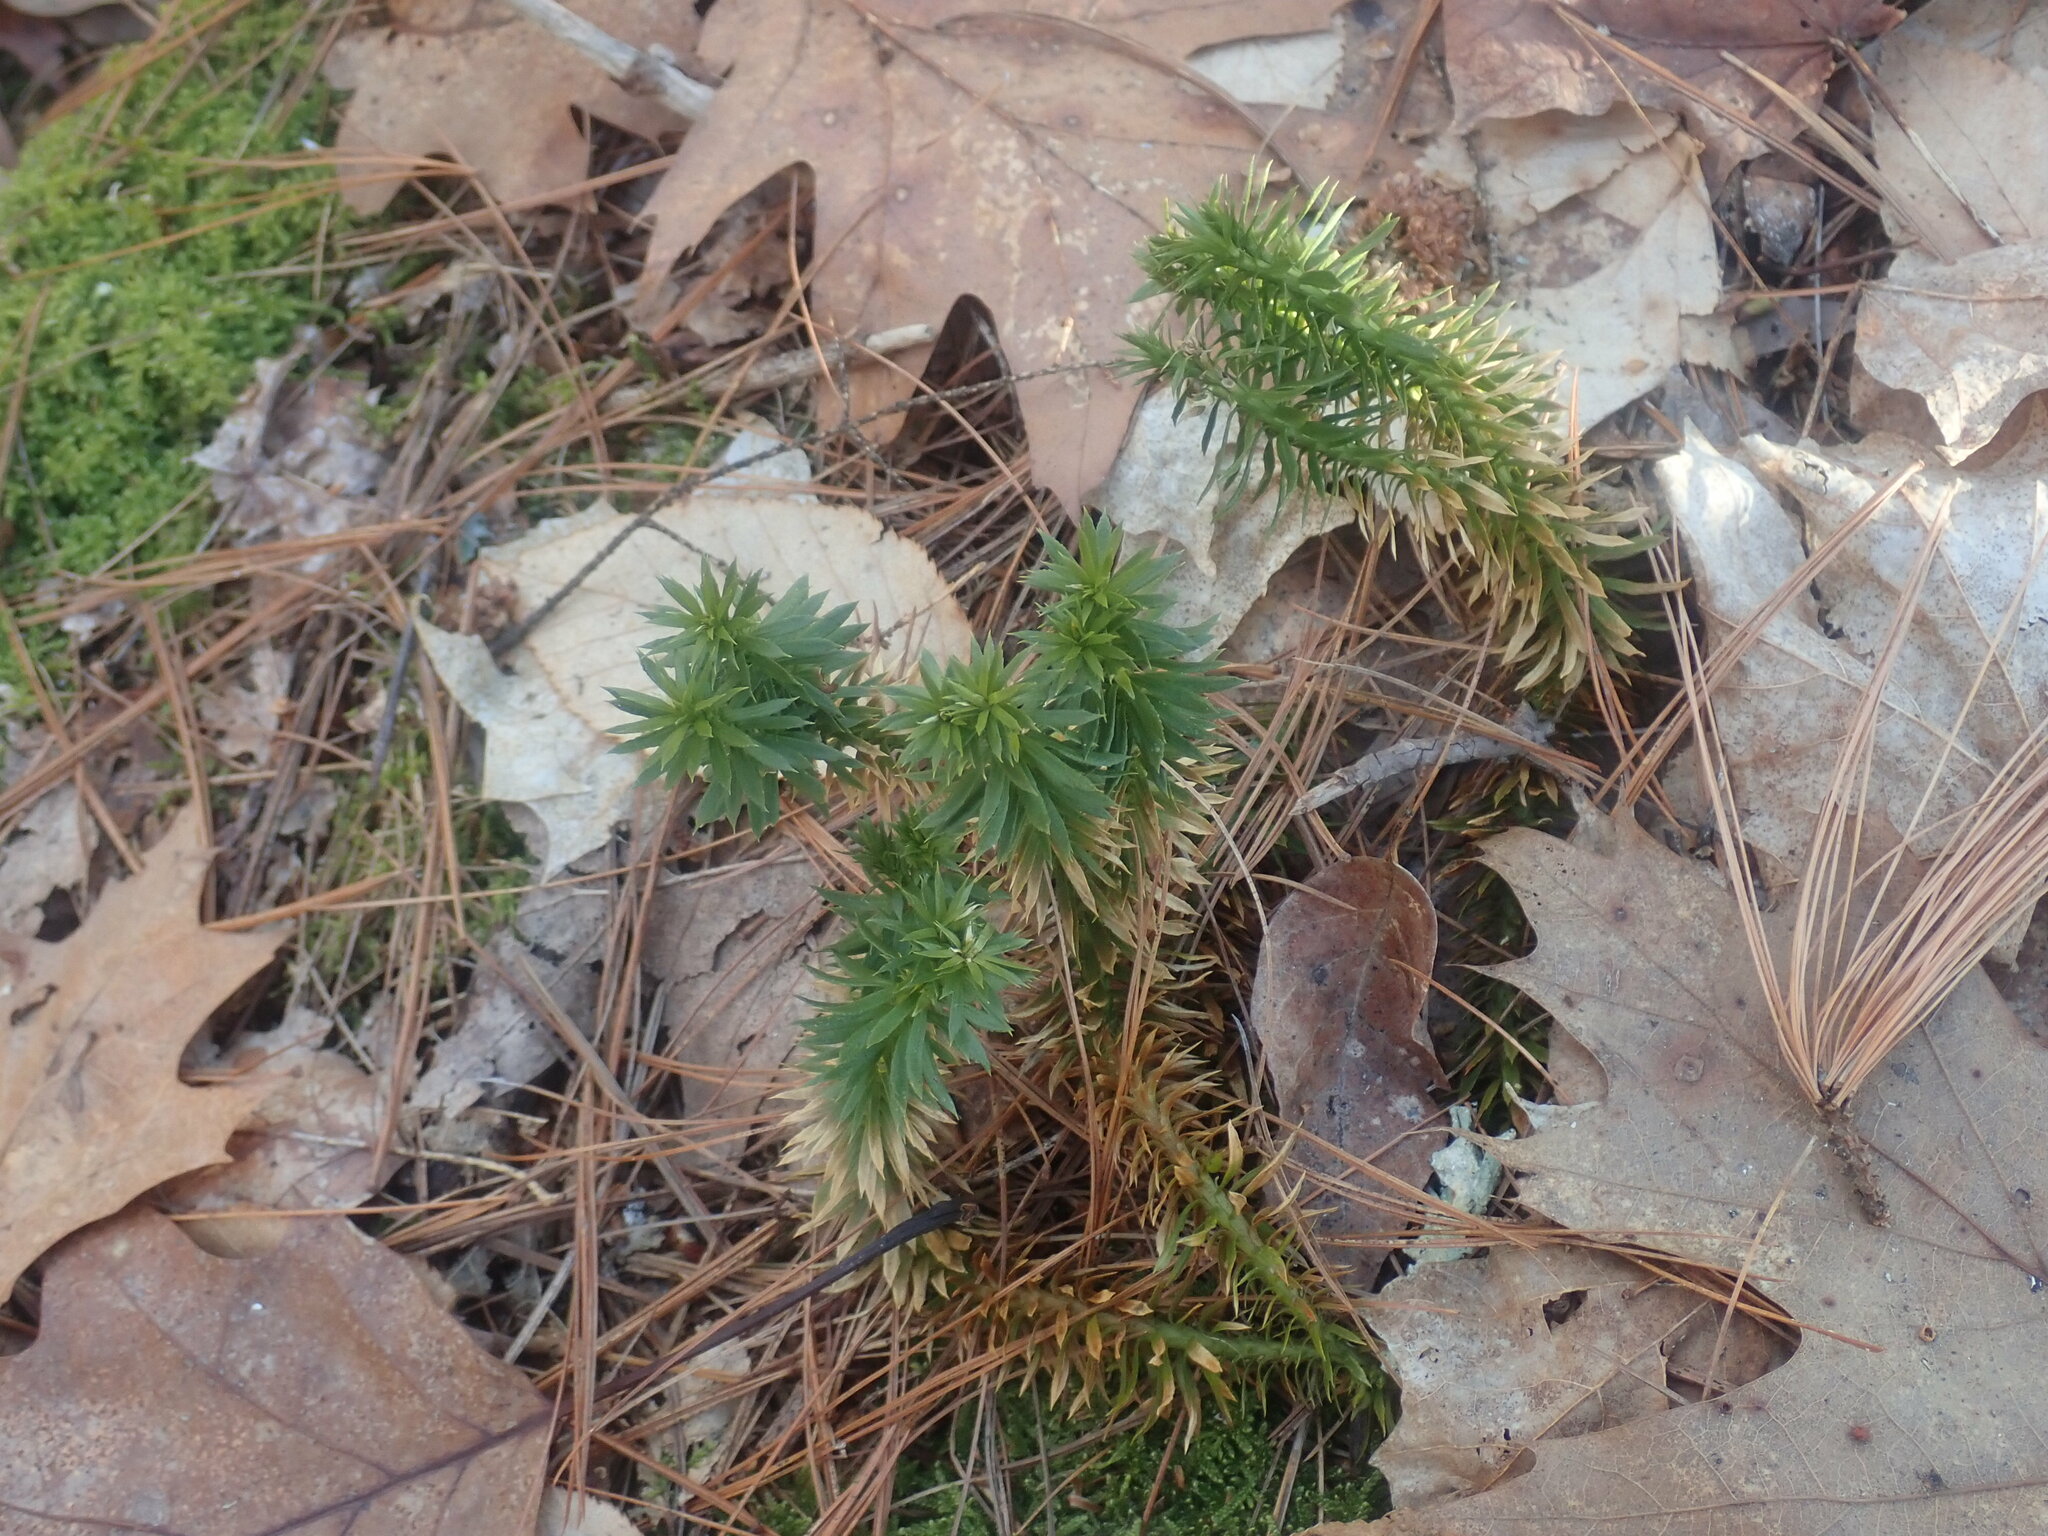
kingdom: Plantae
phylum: Tracheophyta
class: Lycopodiopsida
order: Lycopodiales
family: Lycopodiaceae
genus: Huperzia
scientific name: Huperzia lucidula
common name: Shining clubmoss
